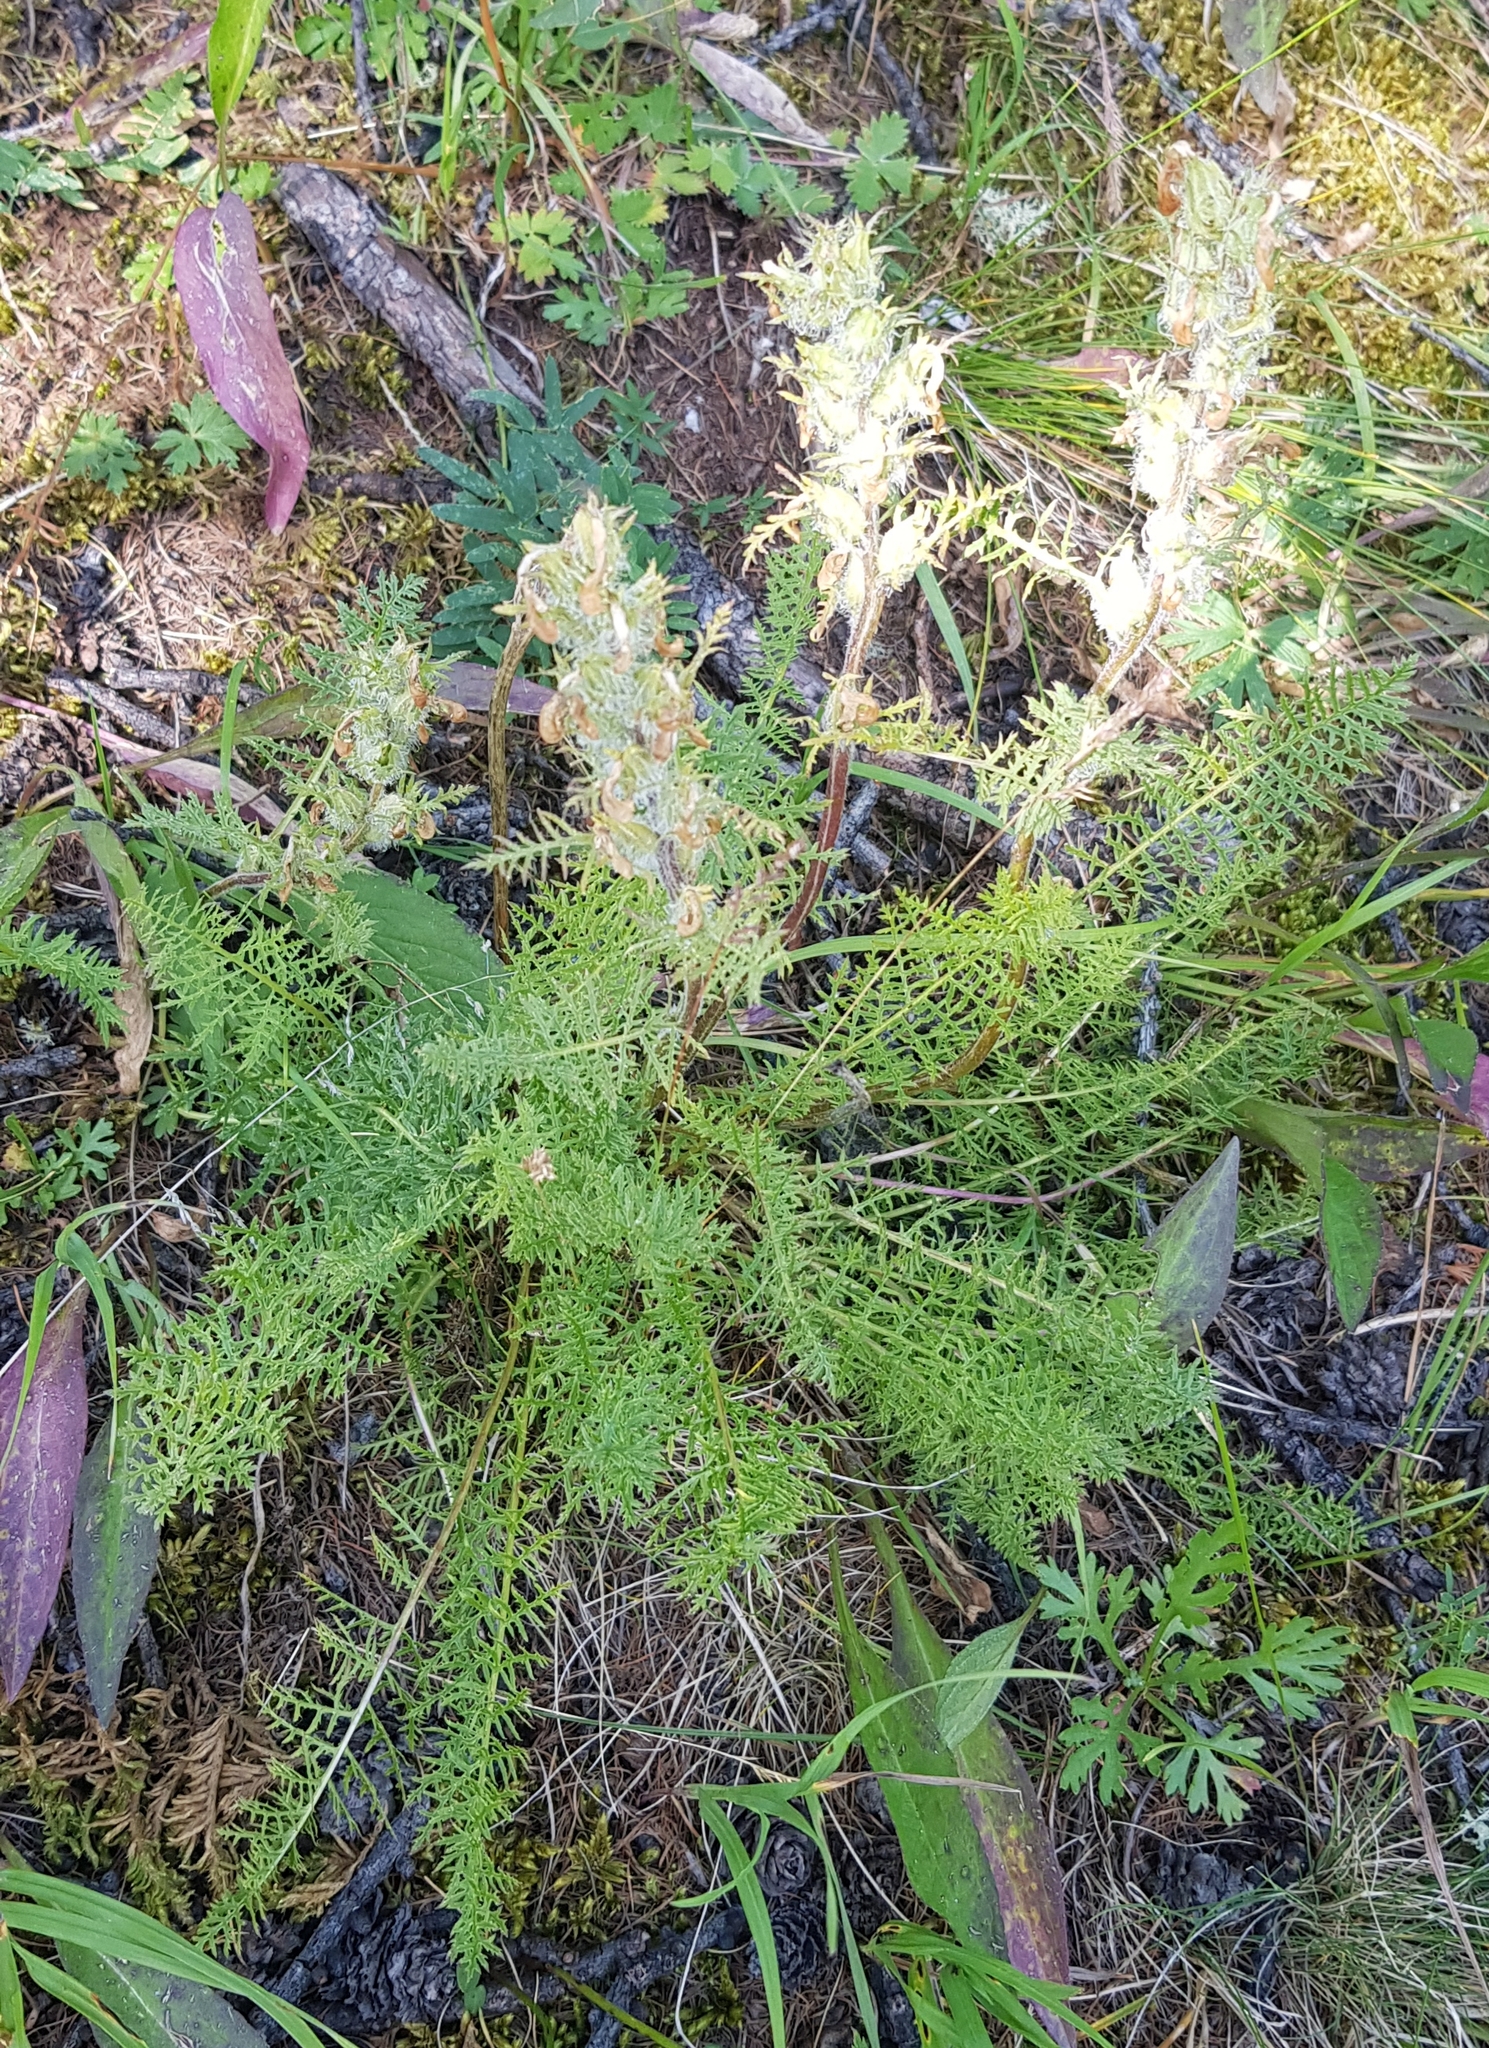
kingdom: Plantae
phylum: Tracheophyta
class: Magnoliopsida
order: Lamiales
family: Orobanchaceae
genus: Pedicularis
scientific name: Pedicularis rubens
